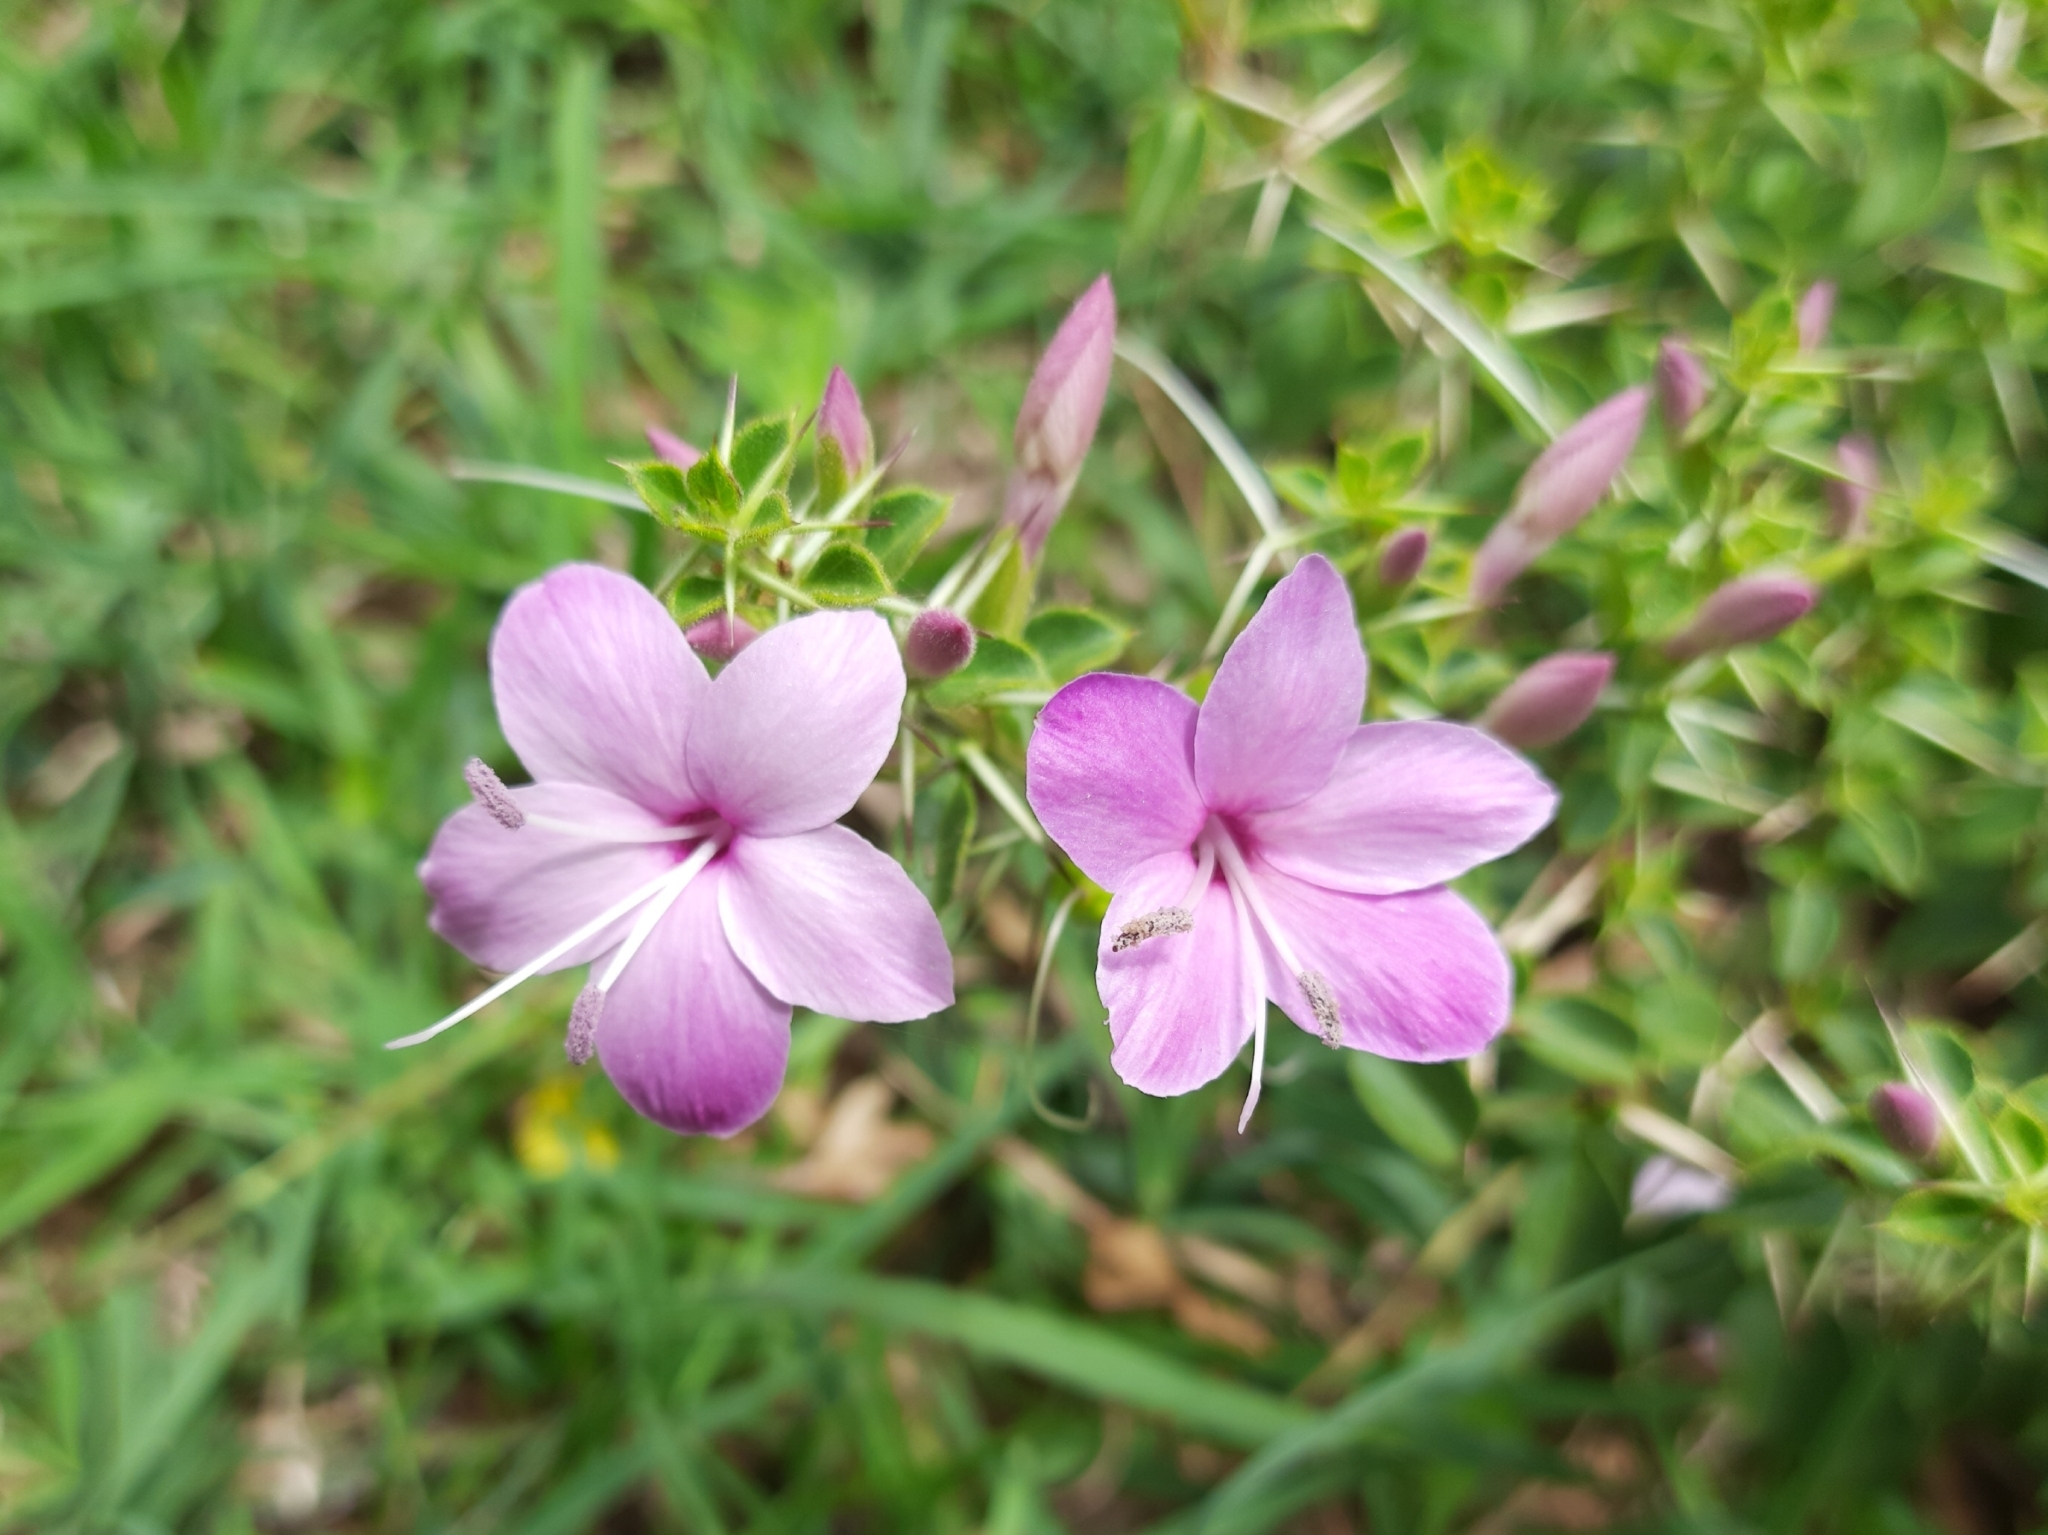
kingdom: Plantae
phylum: Tracheophyta
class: Magnoliopsida
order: Lamiales
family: Acanthaceae
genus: Barleria
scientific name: Barleria mysorensis
